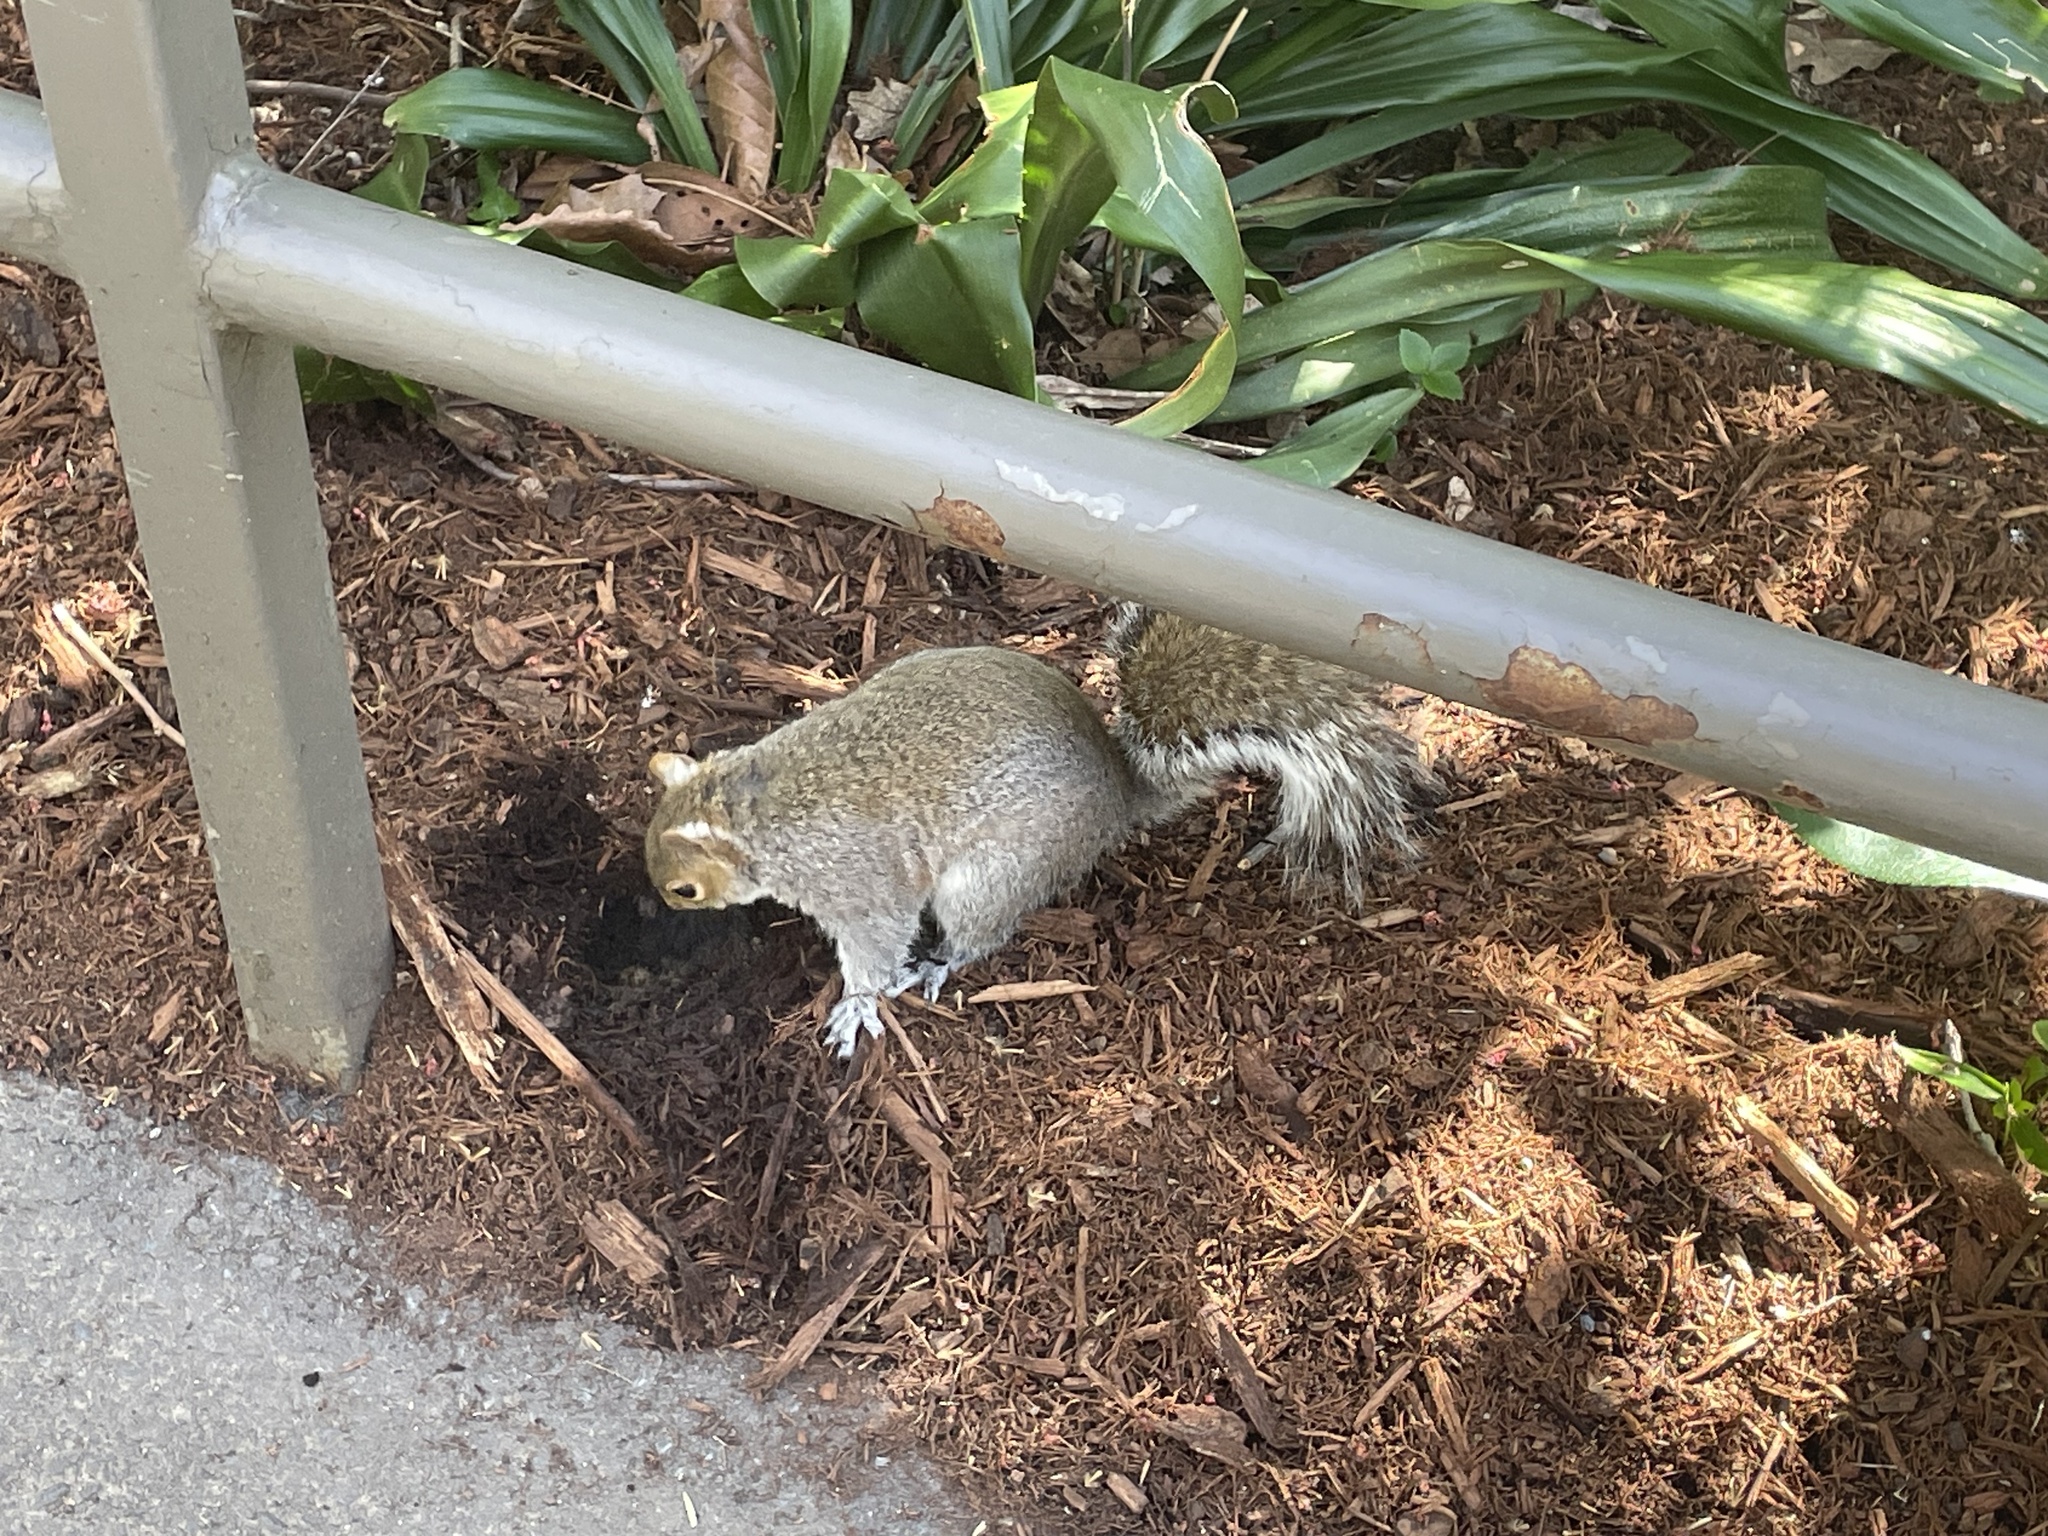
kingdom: Animalia
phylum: Chordata
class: Mammalia
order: Rodentia
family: Sciuridae
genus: Sciurus
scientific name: Sciurus carolinensis
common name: Eastern gray squirrel
